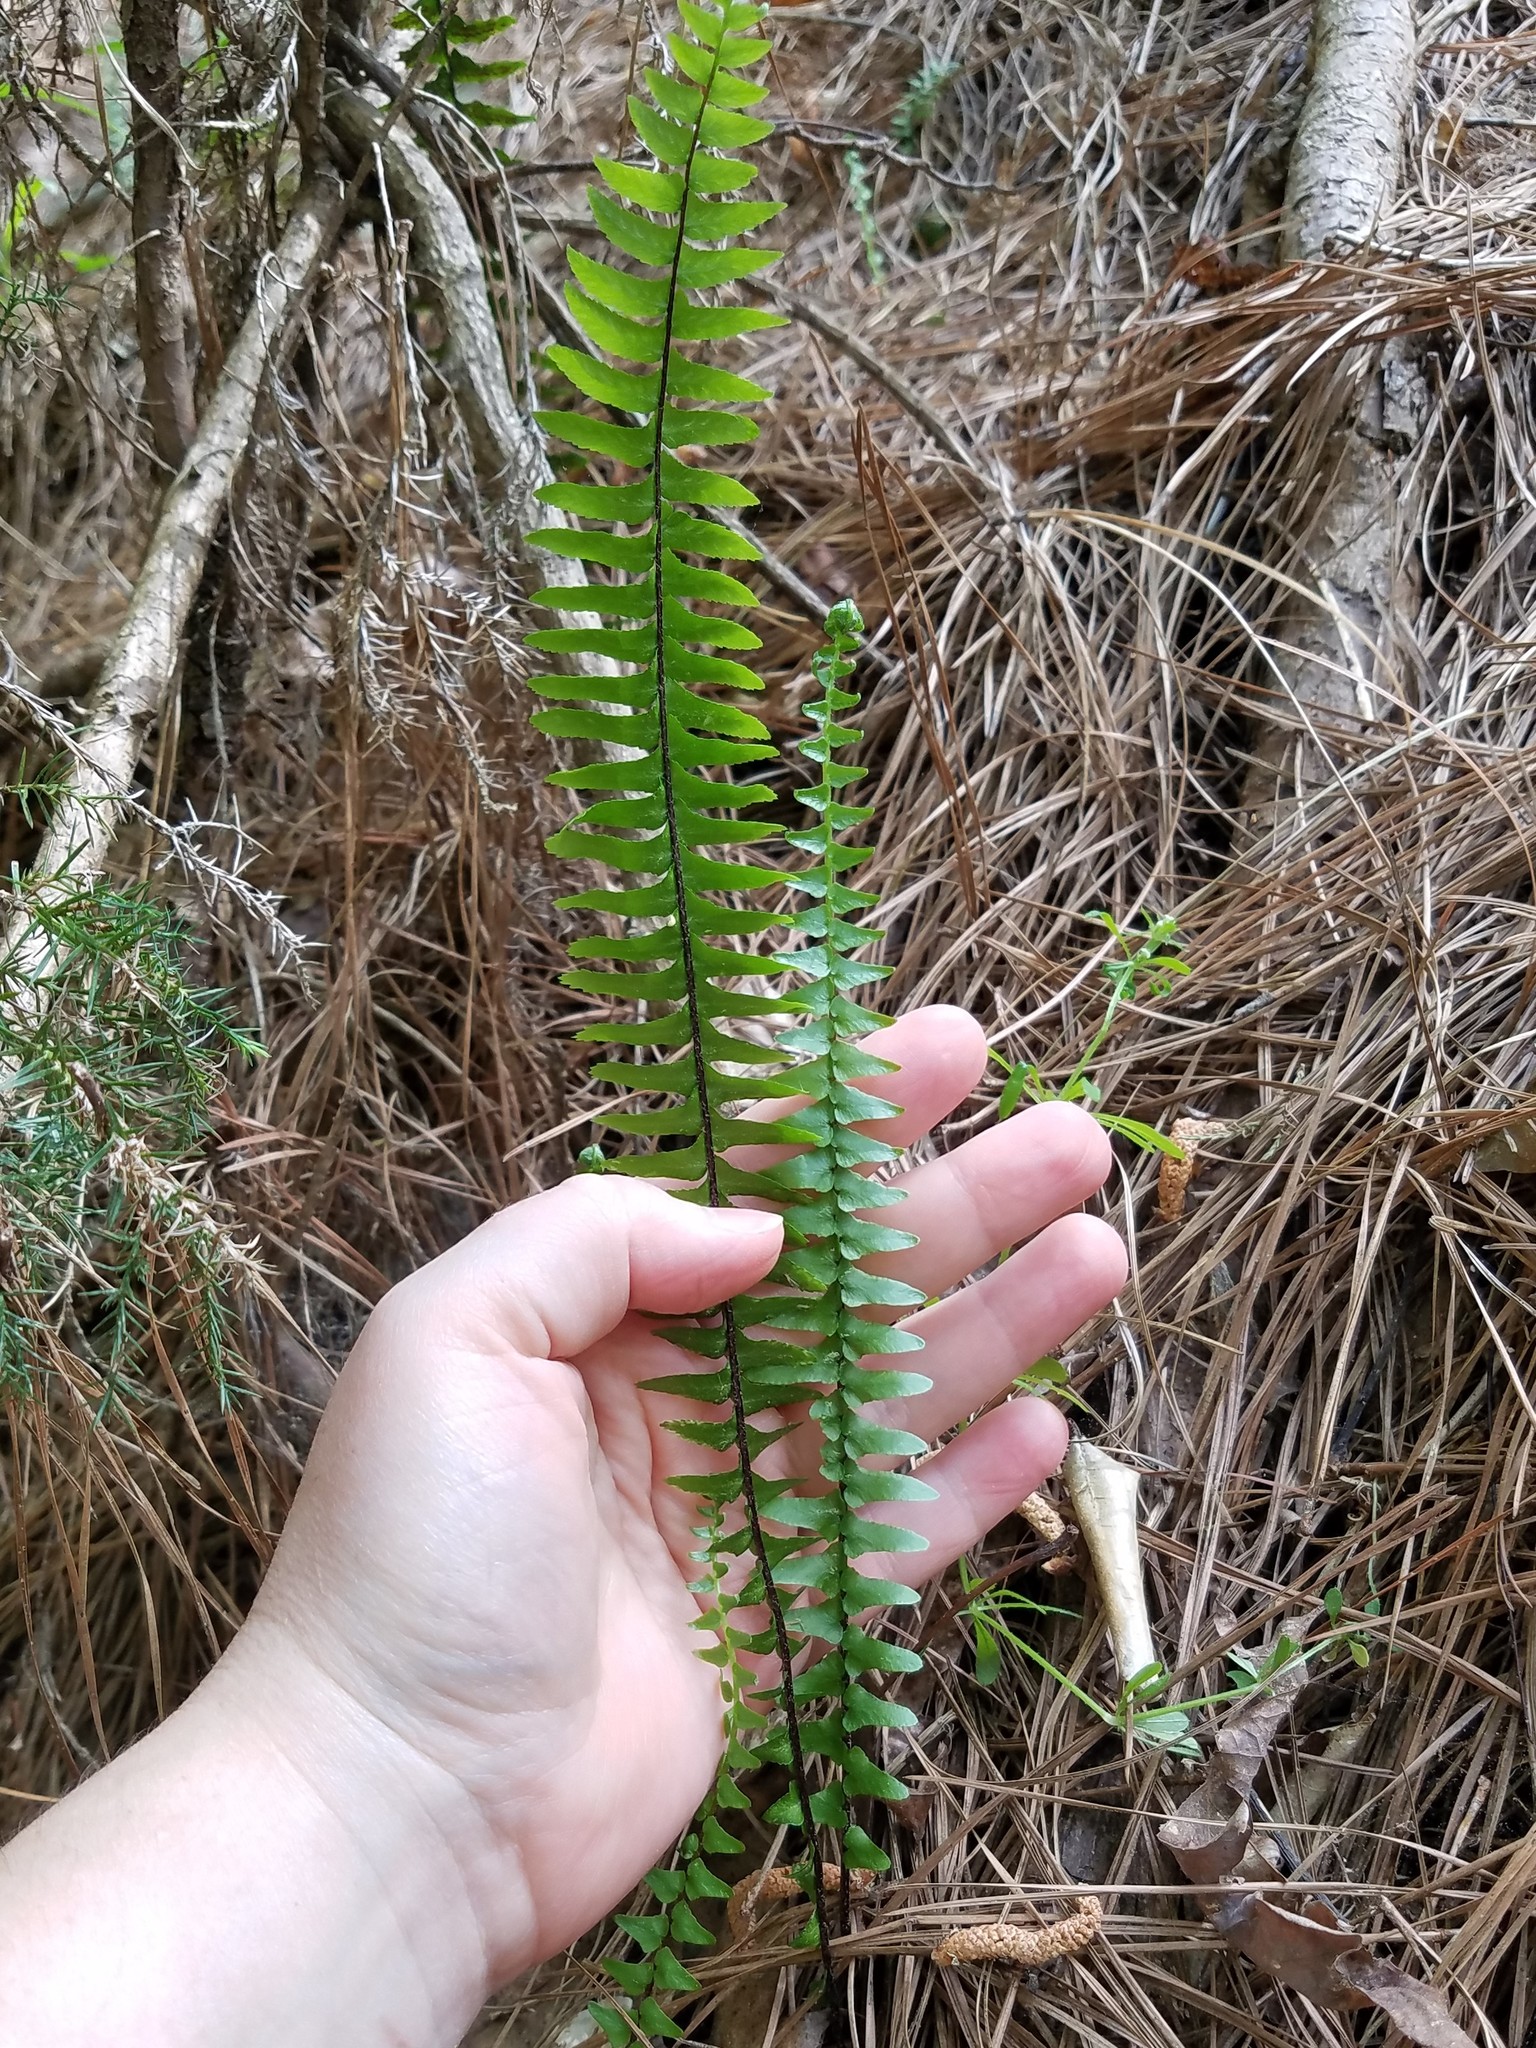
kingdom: Plantae
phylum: Tracheophyta
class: Polypodiopsida
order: Polypodiales
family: Aspleniaceae
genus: Asplenium
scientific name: Asplenium platyneuron
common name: Ebony spleenwort
